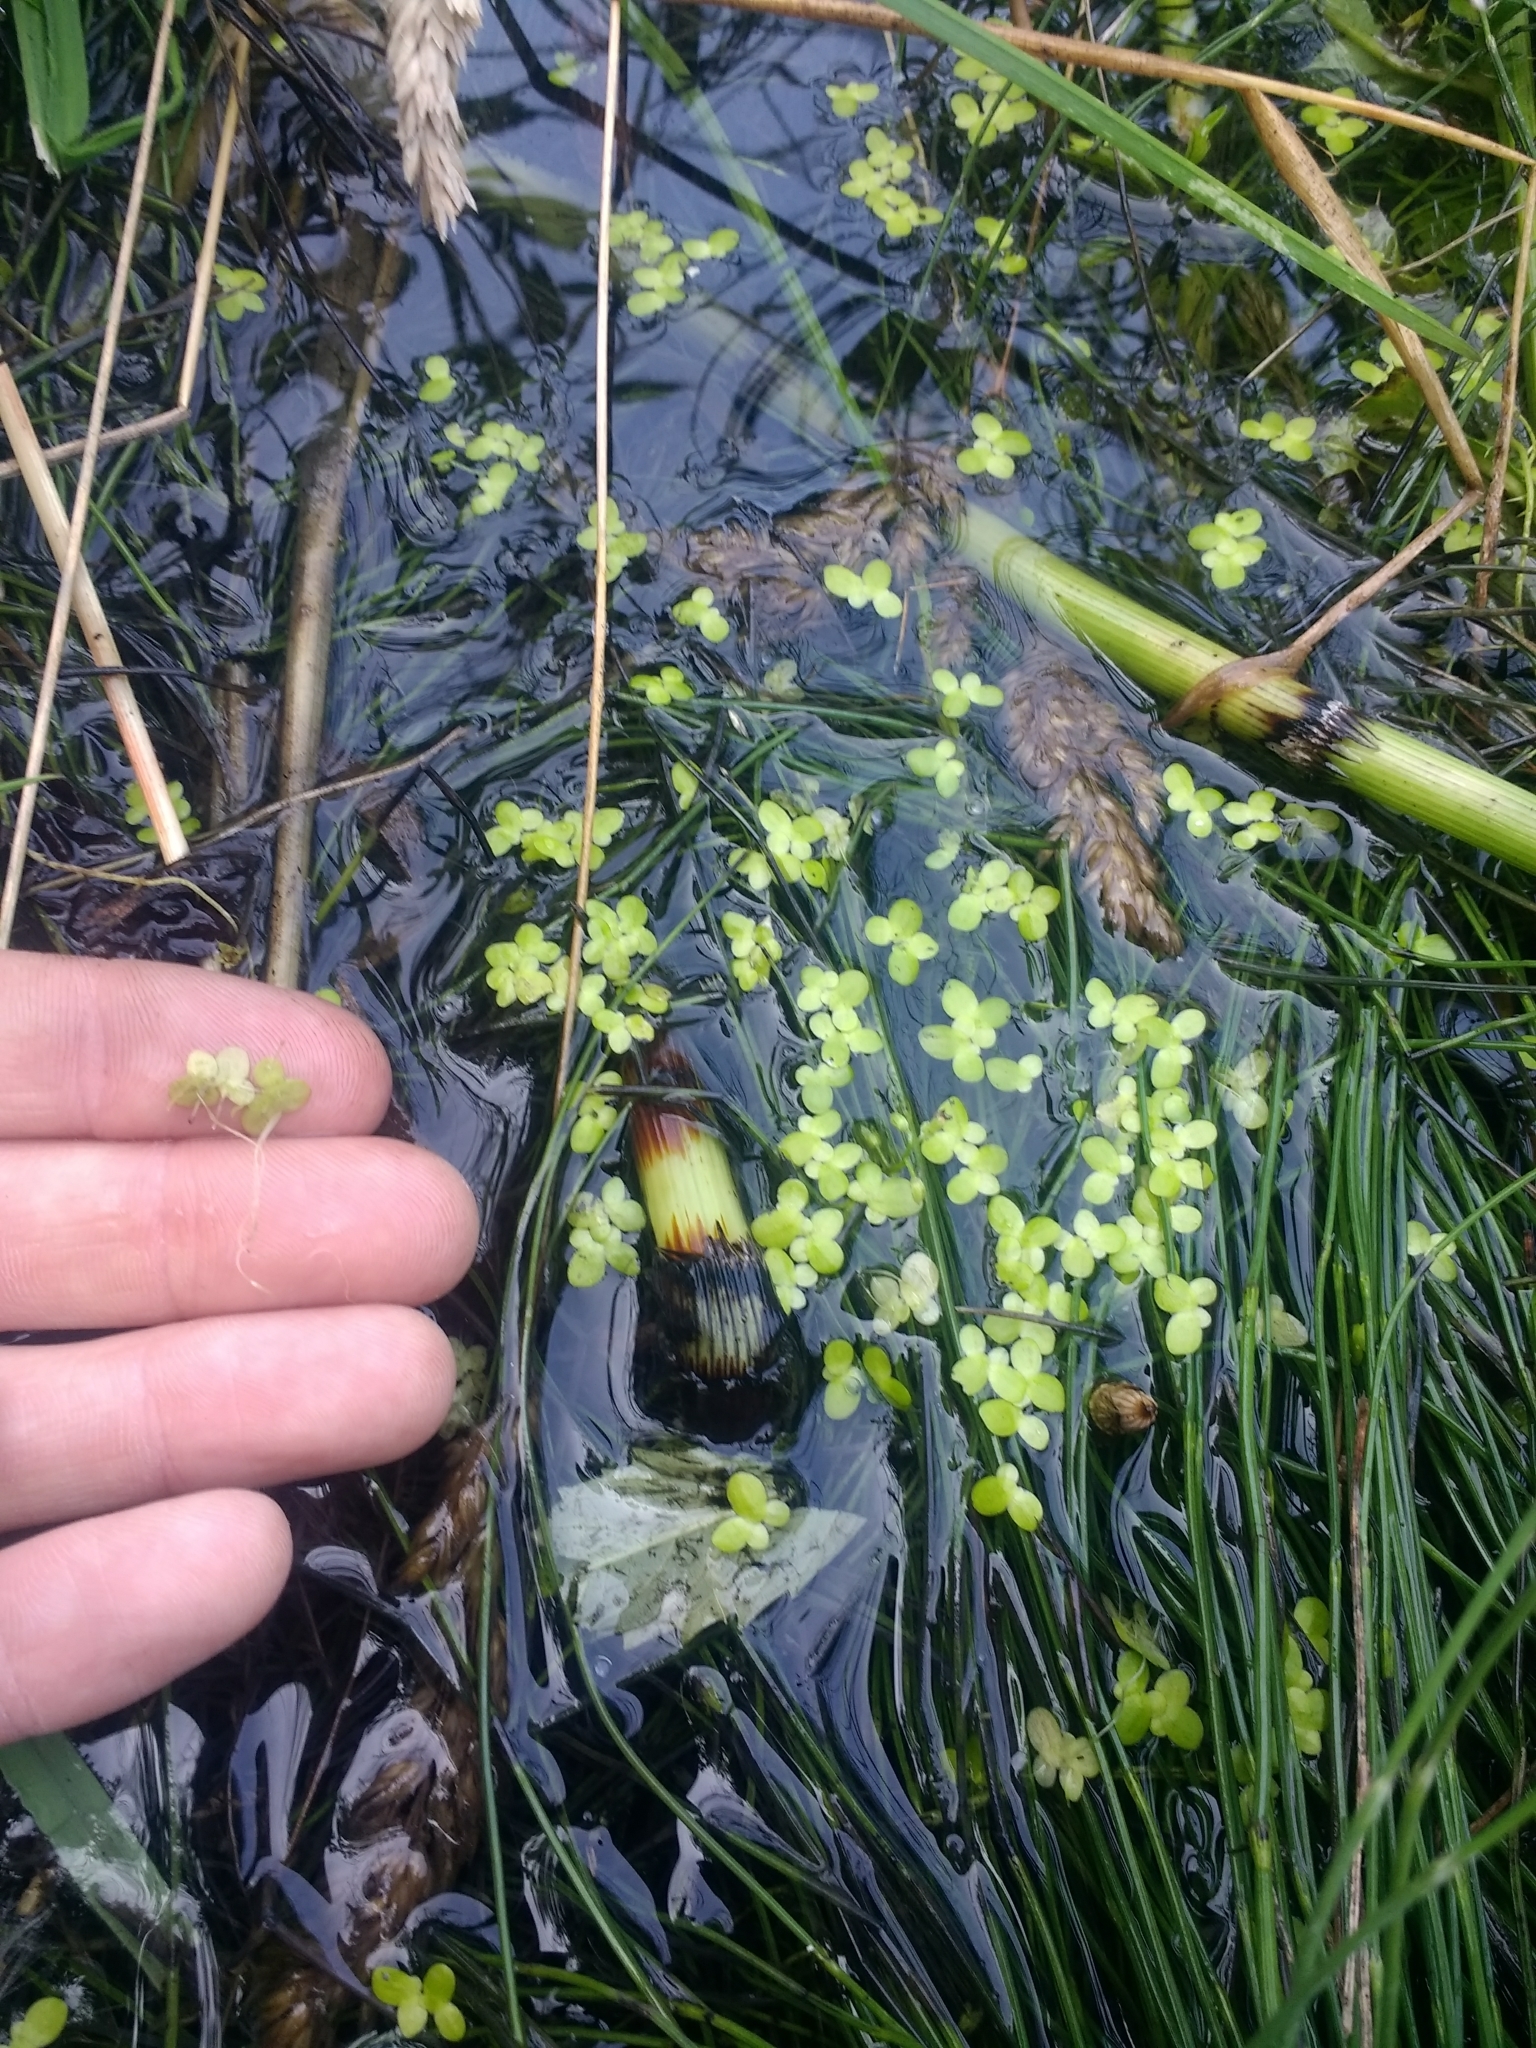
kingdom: Plantae
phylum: Tracheophyta
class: Liliopsida
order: Alismatales
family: Araceae
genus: Lemna
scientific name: Lemna minor
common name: Common duckweed
